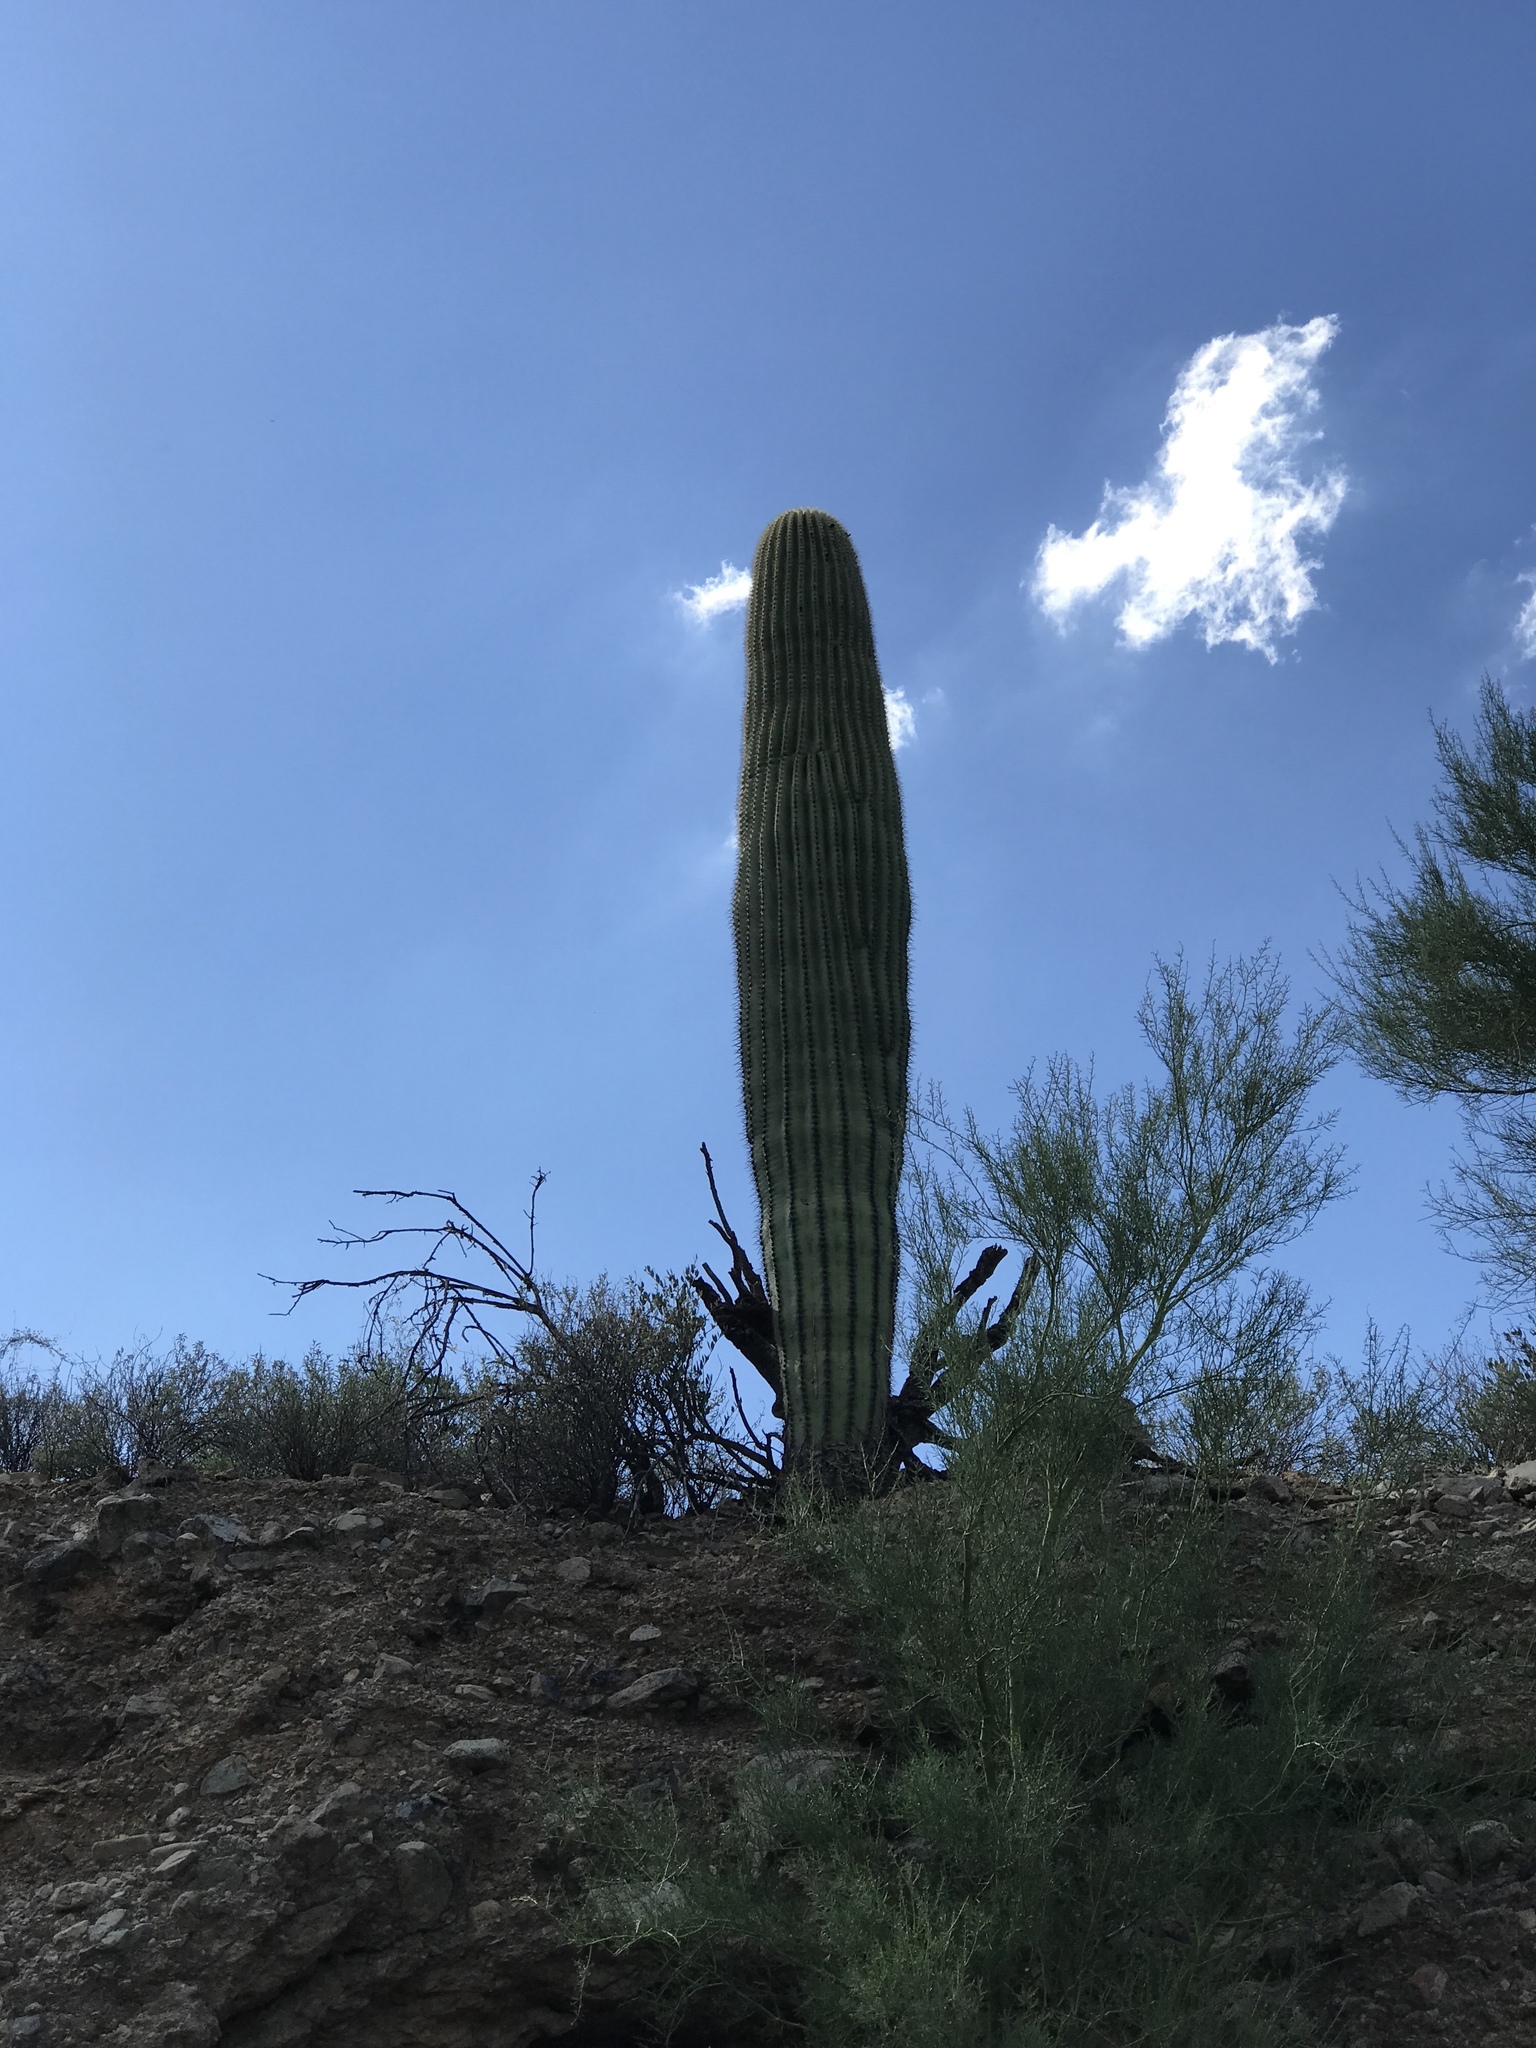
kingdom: Plantae
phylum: Tracheophyta
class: Magnoliopsida
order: Caryophyllales
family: Cactaceae
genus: Carnegiea
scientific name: Carnegiea gigantea
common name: Saguaro
